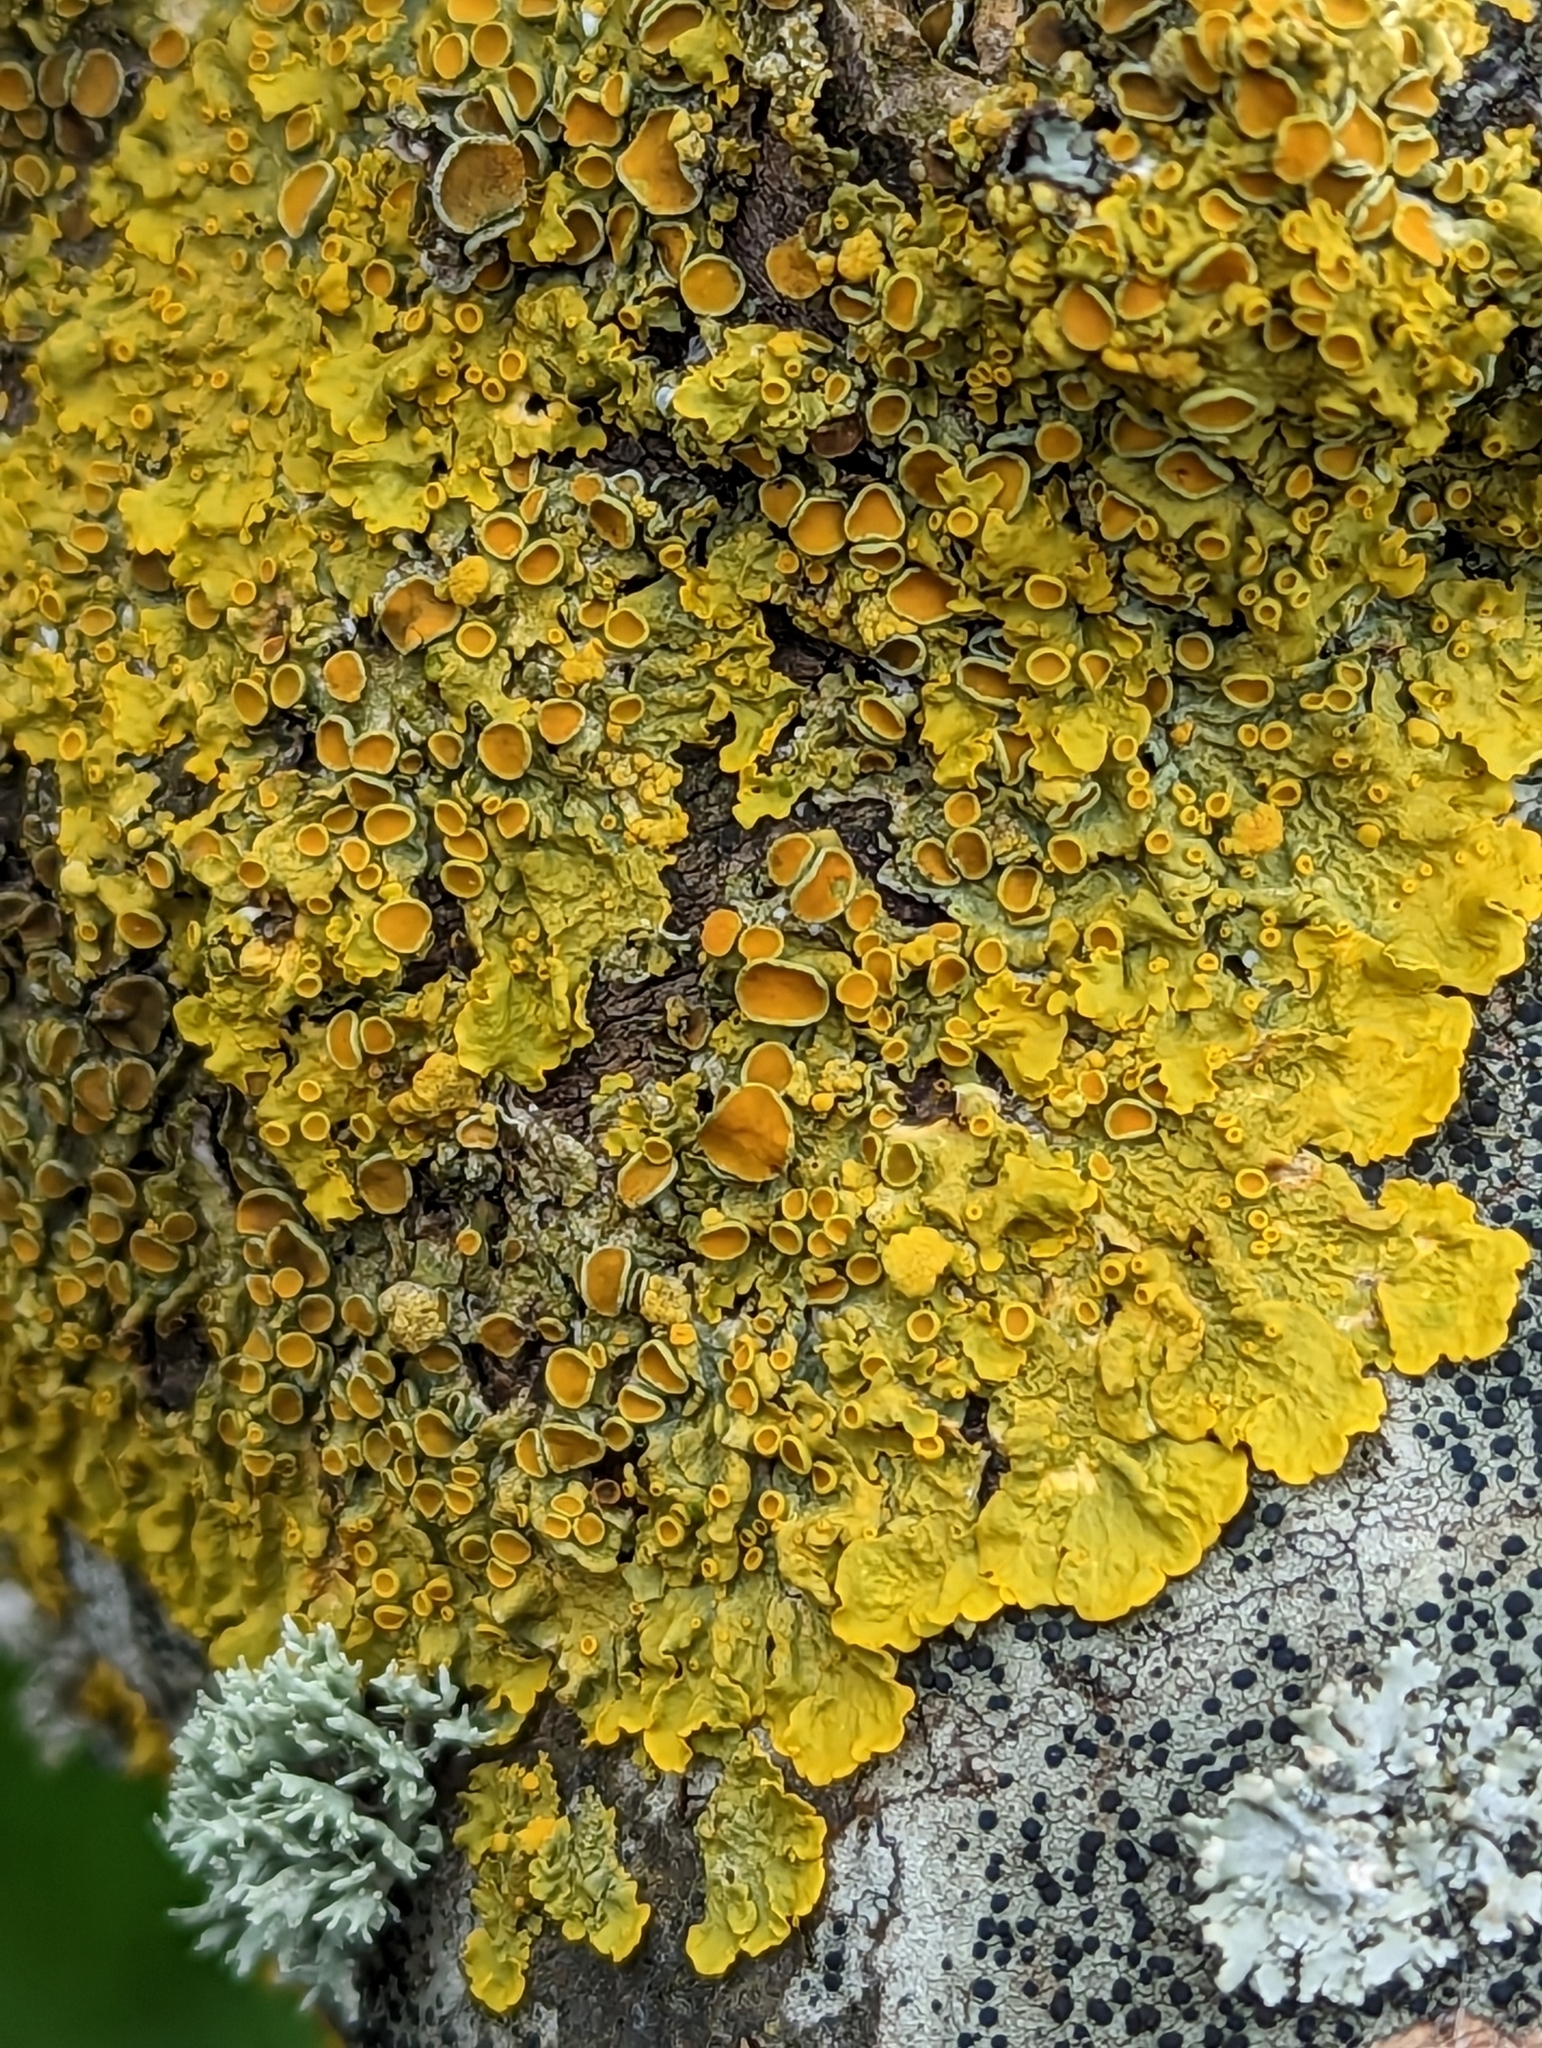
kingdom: Fungi
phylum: Ascomycota
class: Lecanoromycetes
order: Teloschistales
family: Teloschistaceae
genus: Xanthoria
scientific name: Xanthoria parietina
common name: Common orange lichen
